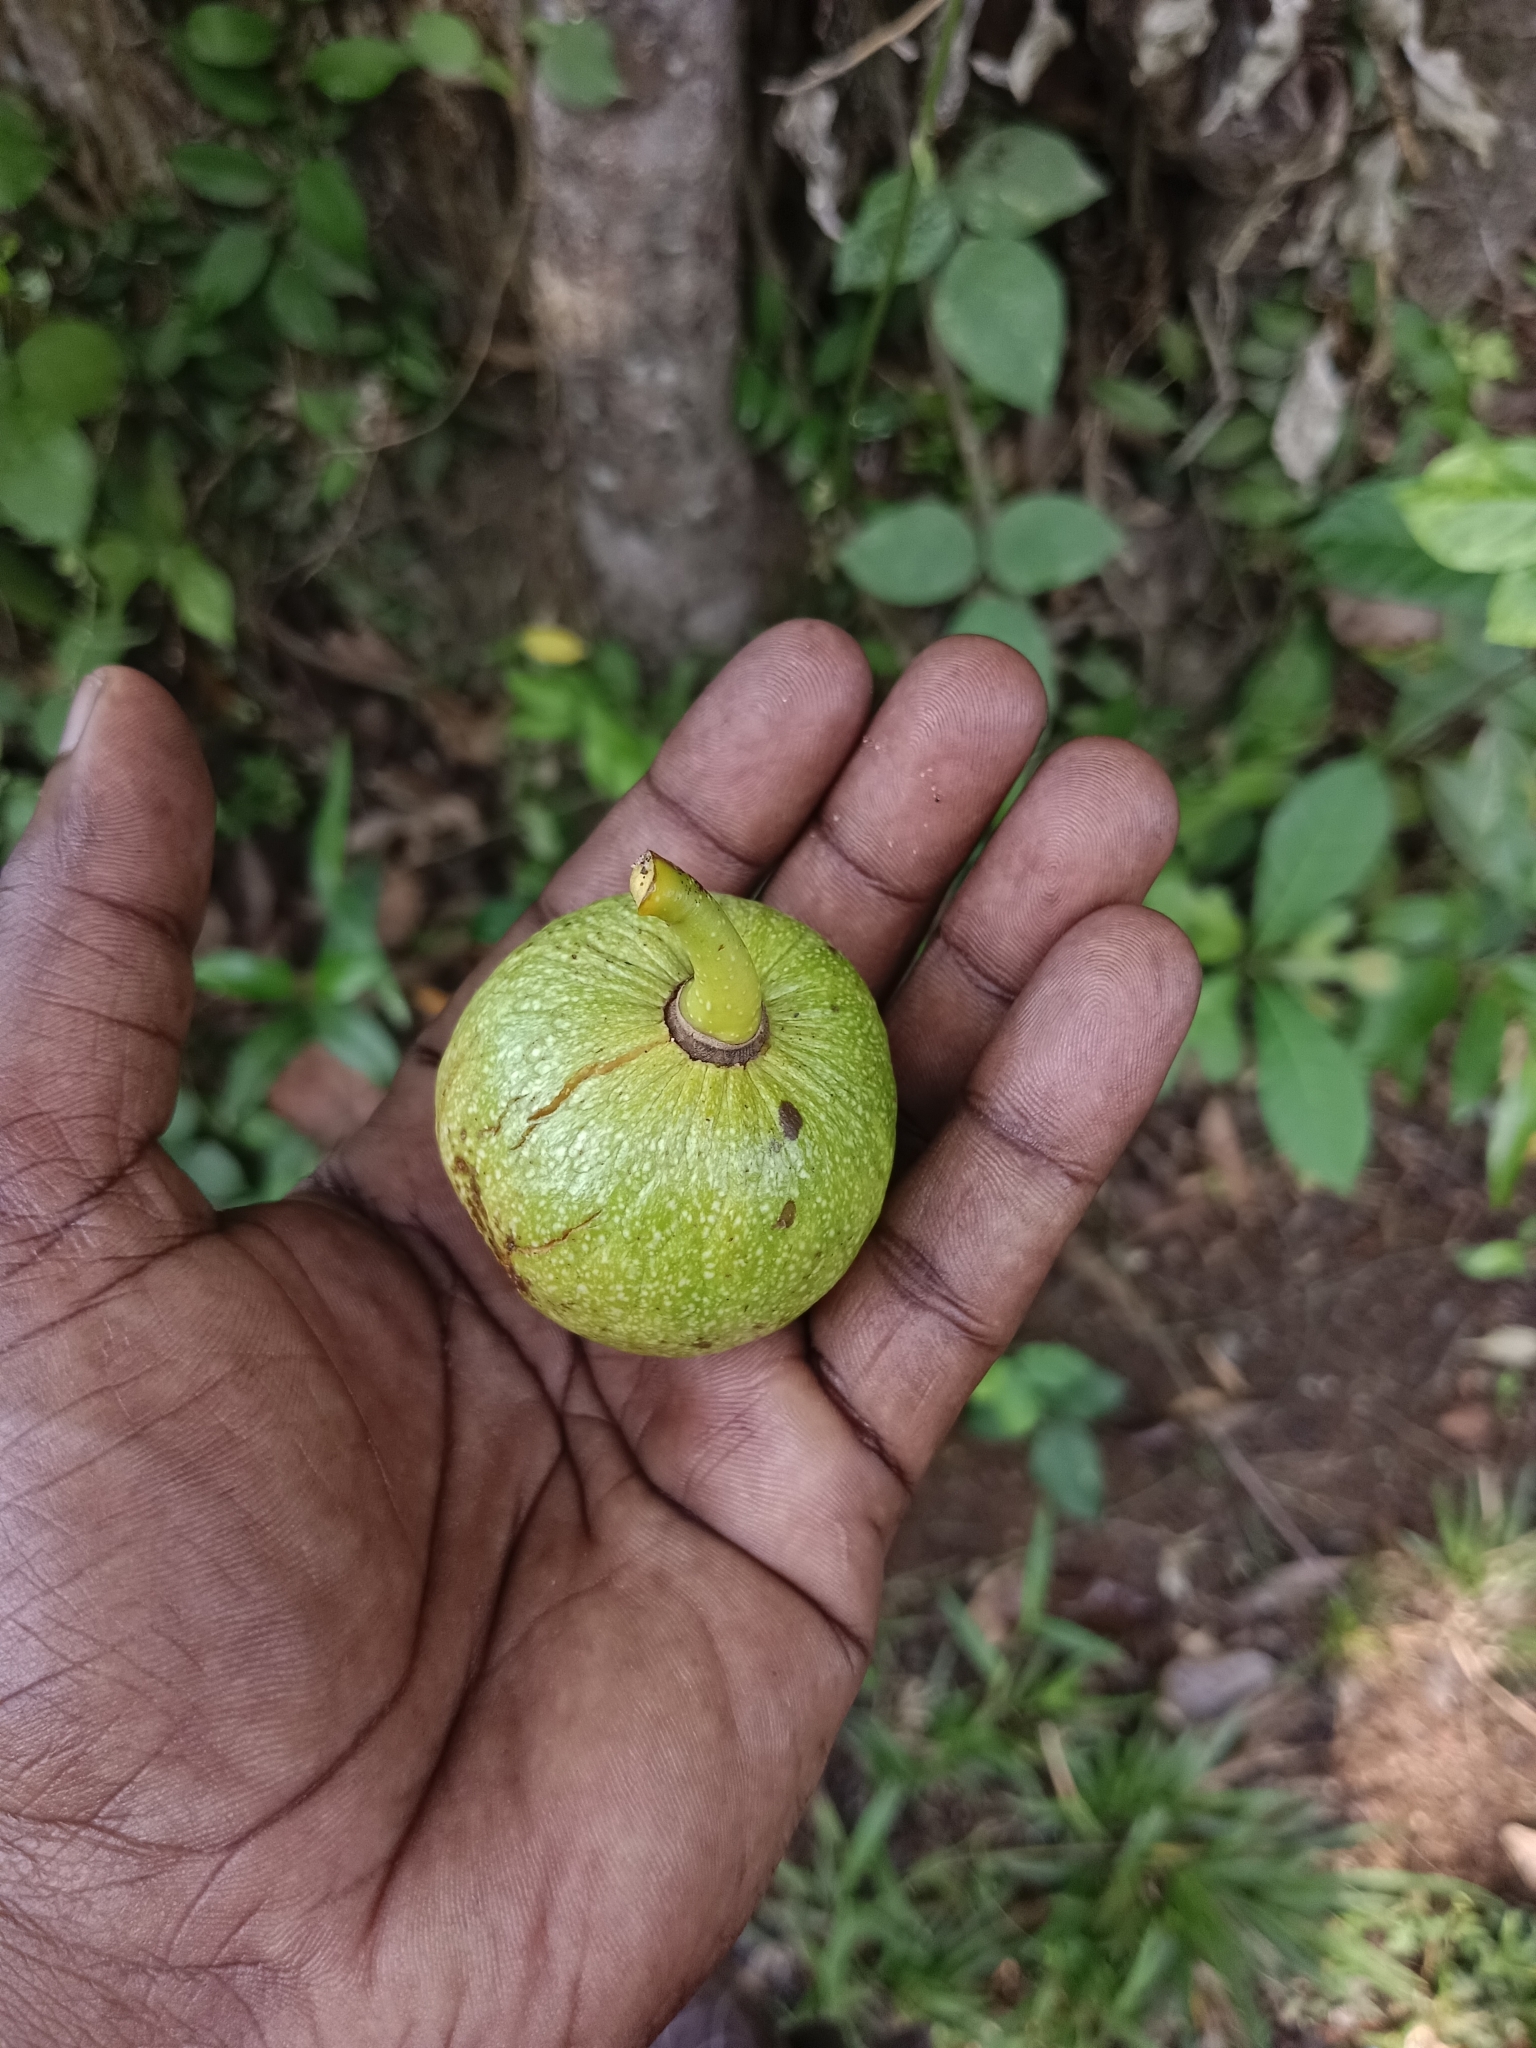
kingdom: Plantae
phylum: Tracheophyta
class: Magnoliopsida
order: Magnoliales
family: Annonaceae
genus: Annona
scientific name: Annona glabra
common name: Monkey apple
